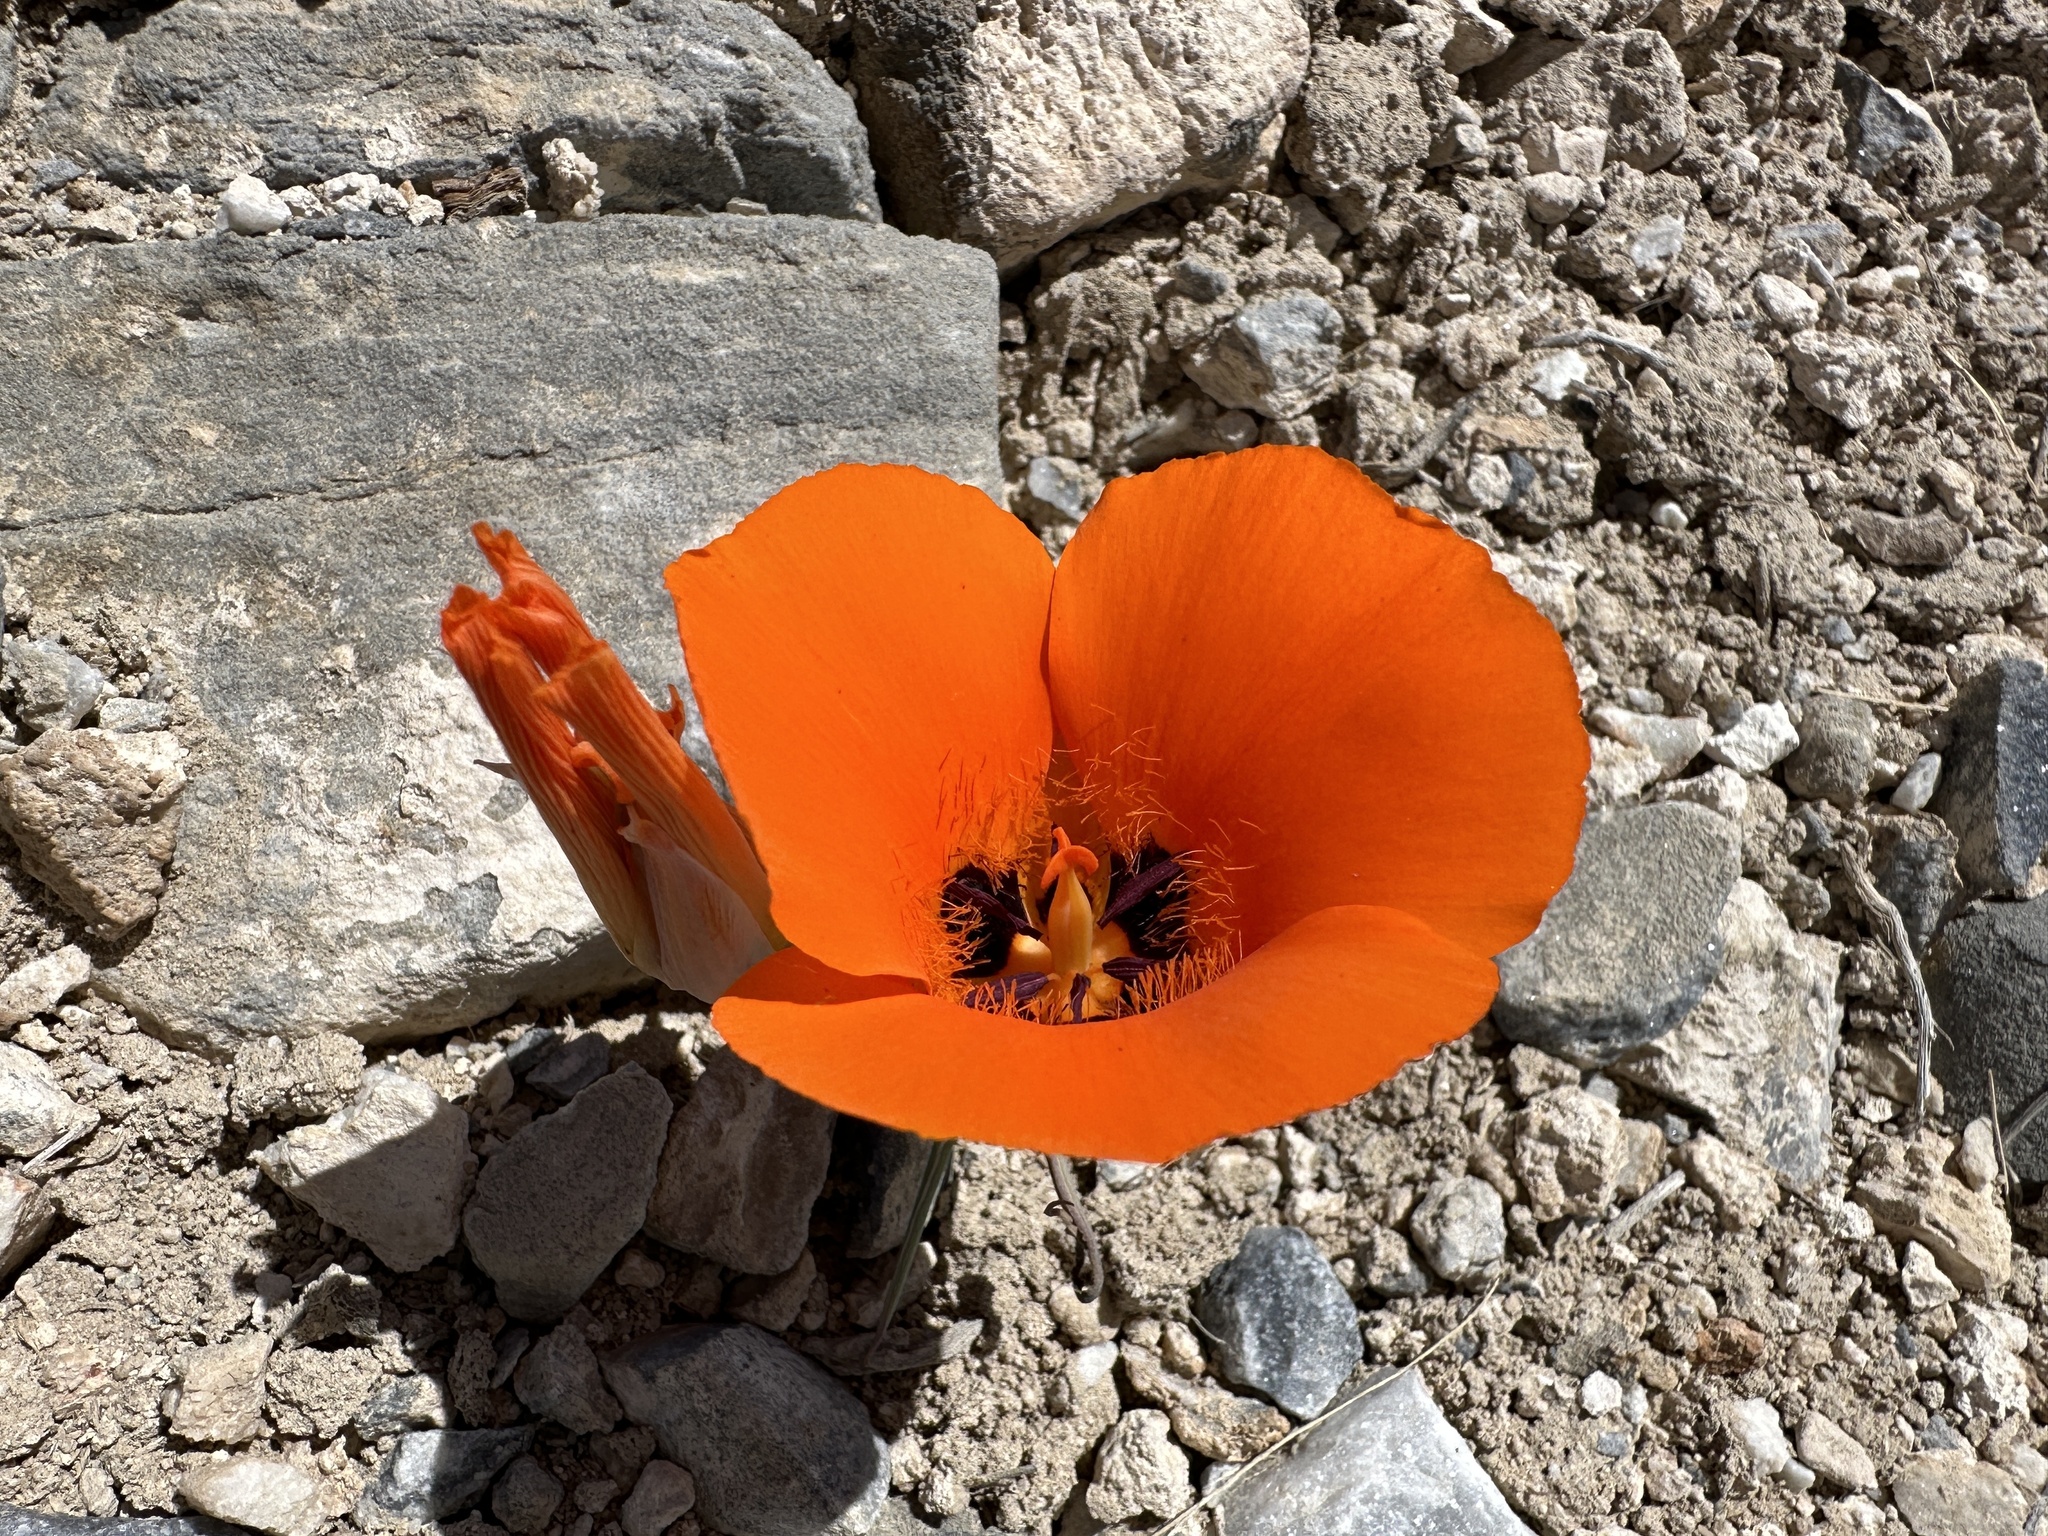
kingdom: Plantae
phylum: Tracheophyta
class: Liliopsida
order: Liliales
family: Liliaceae
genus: Calochortus
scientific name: Calochortus kennedyi
